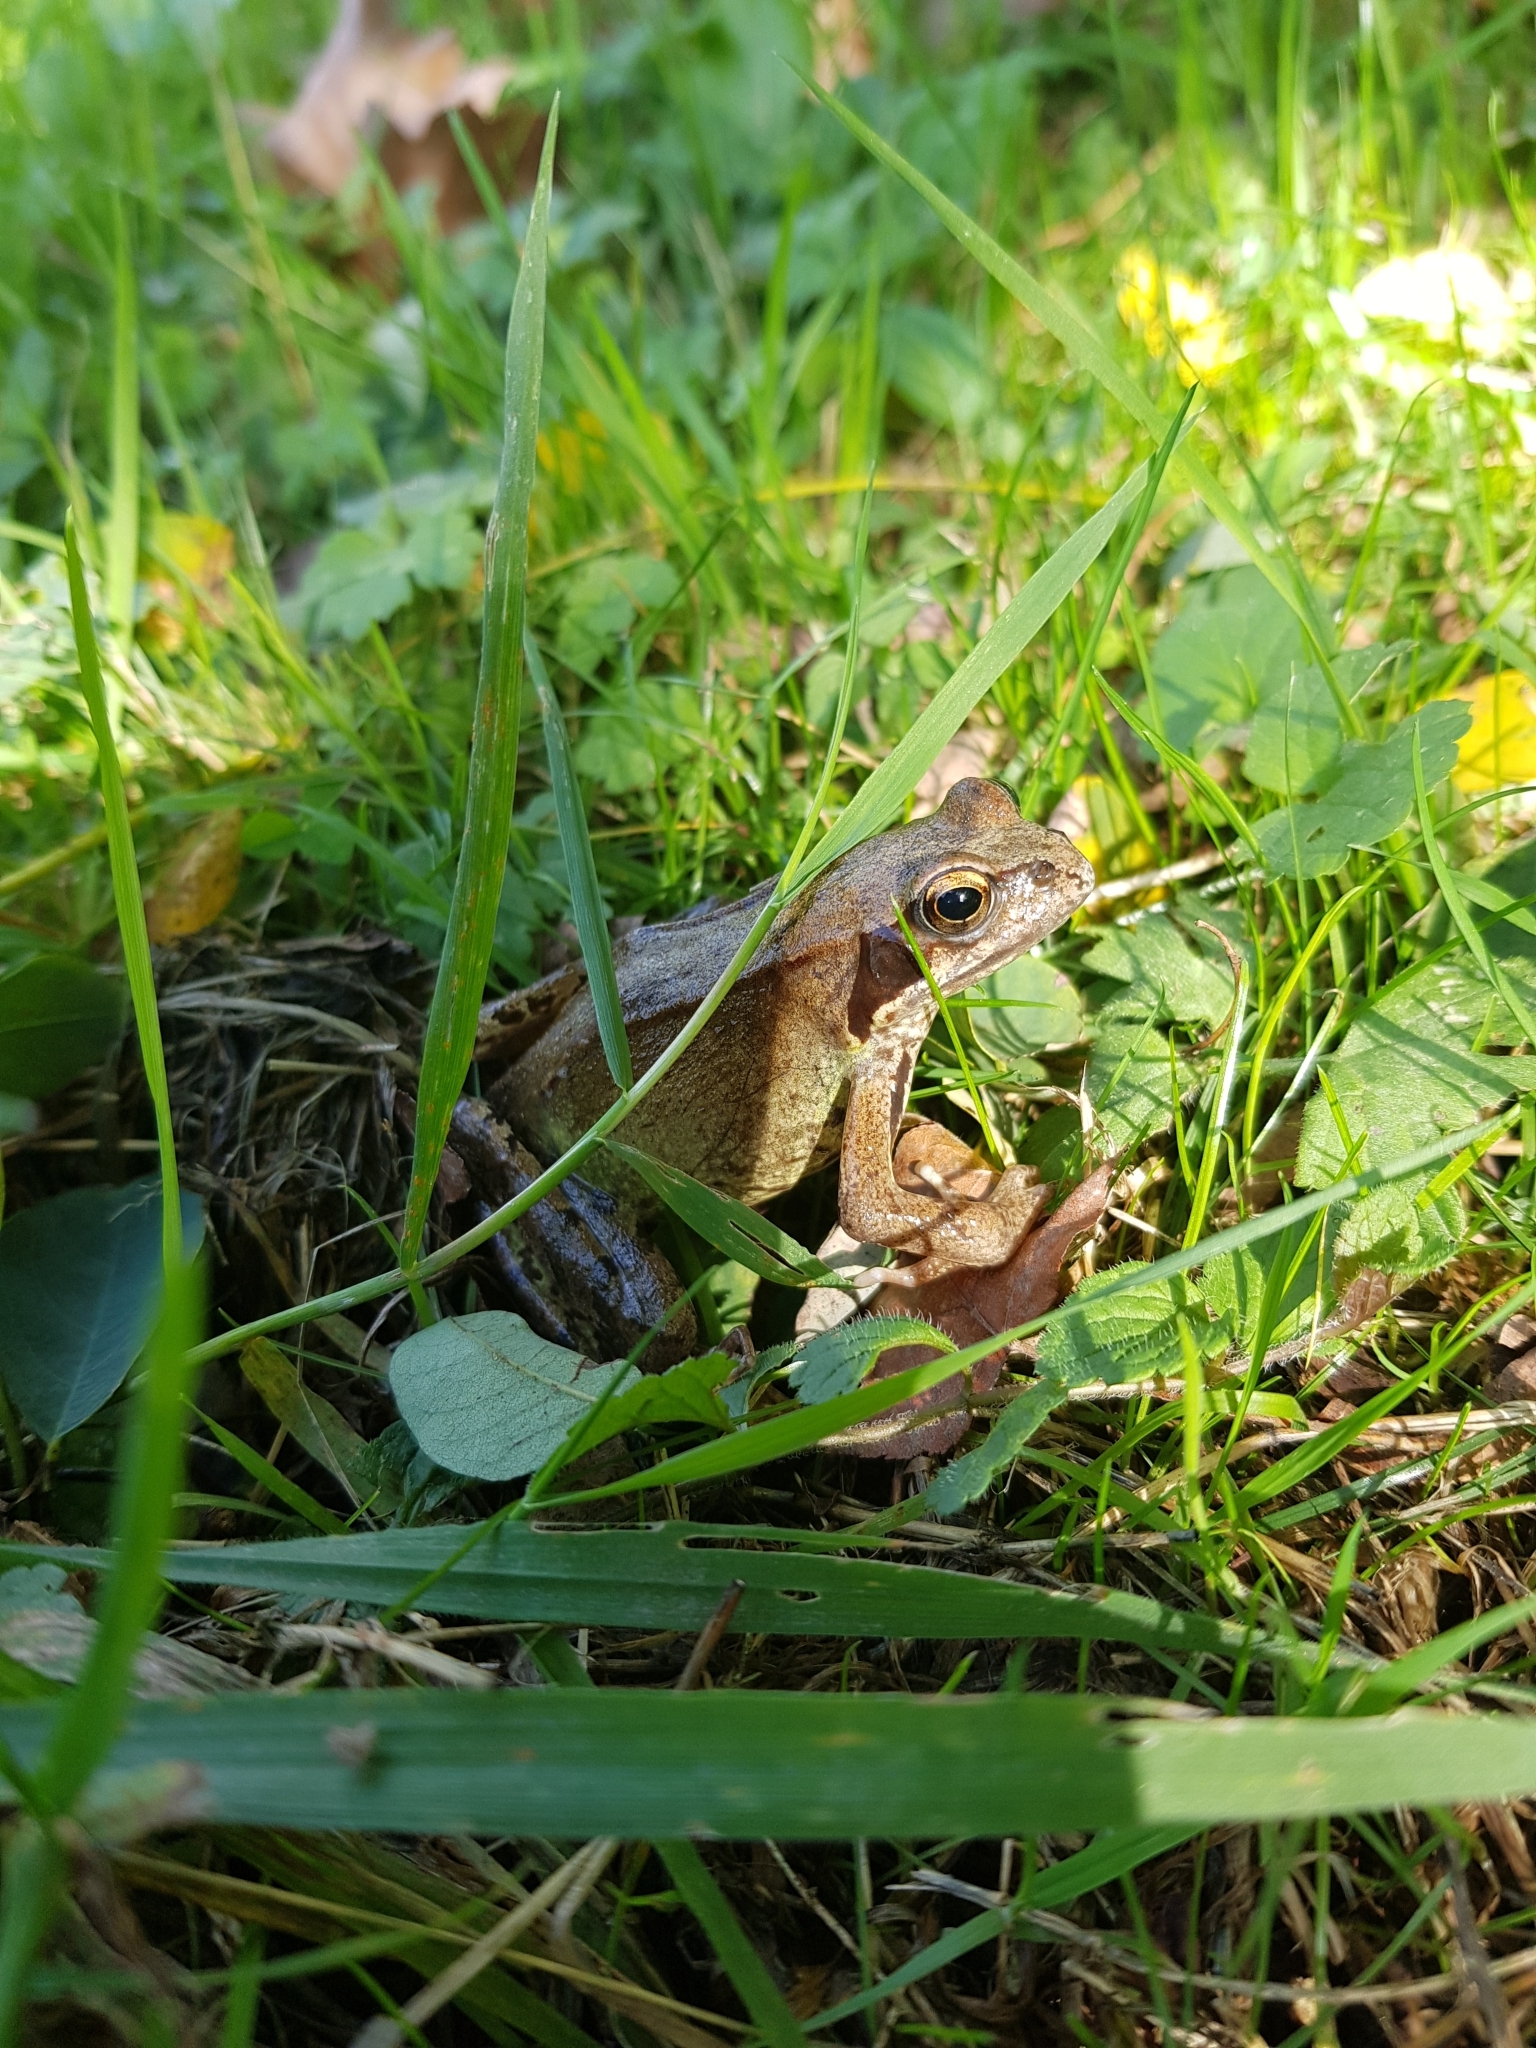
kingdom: Animalia
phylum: Chordata
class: Amphibia
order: Anura
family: Ranidae
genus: Rana
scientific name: Rana temporaria
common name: Common frog
